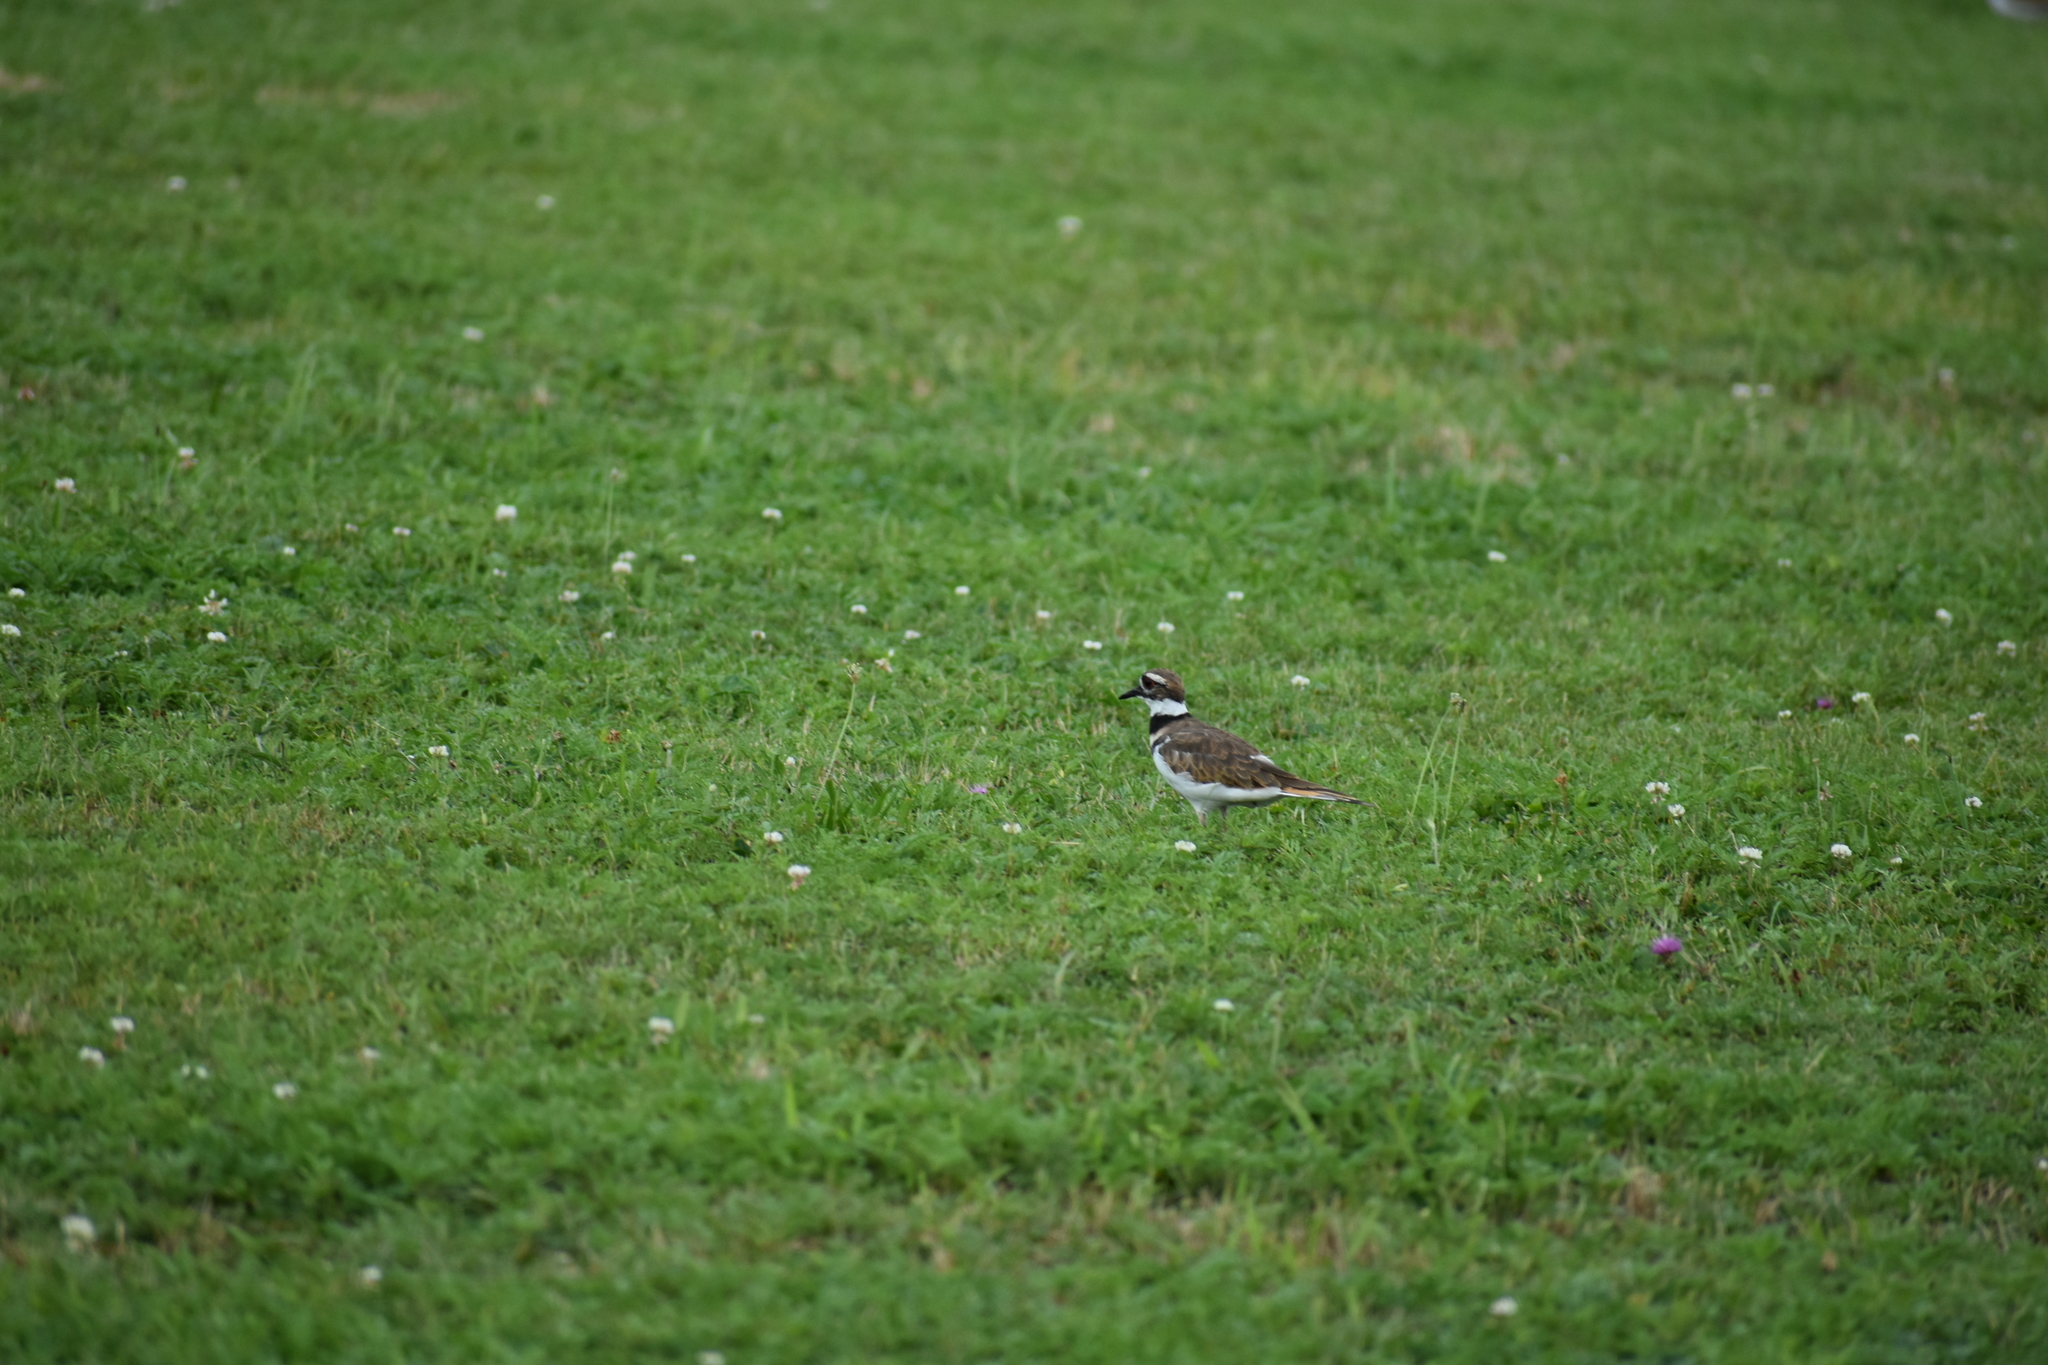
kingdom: Animalia
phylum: Chordata
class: Aves
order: Charadriiformes
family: Charadriidae
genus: Charadrius
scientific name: Charadrius vociferus
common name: Killdeer
